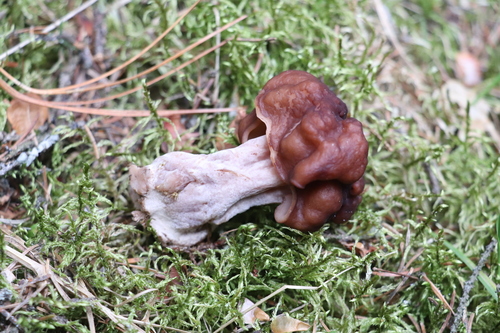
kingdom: Fungi
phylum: Ascomycota
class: Pezizomycetes
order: Pezizales
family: Discinaceae
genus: Gyromitra
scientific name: Gyromitra
